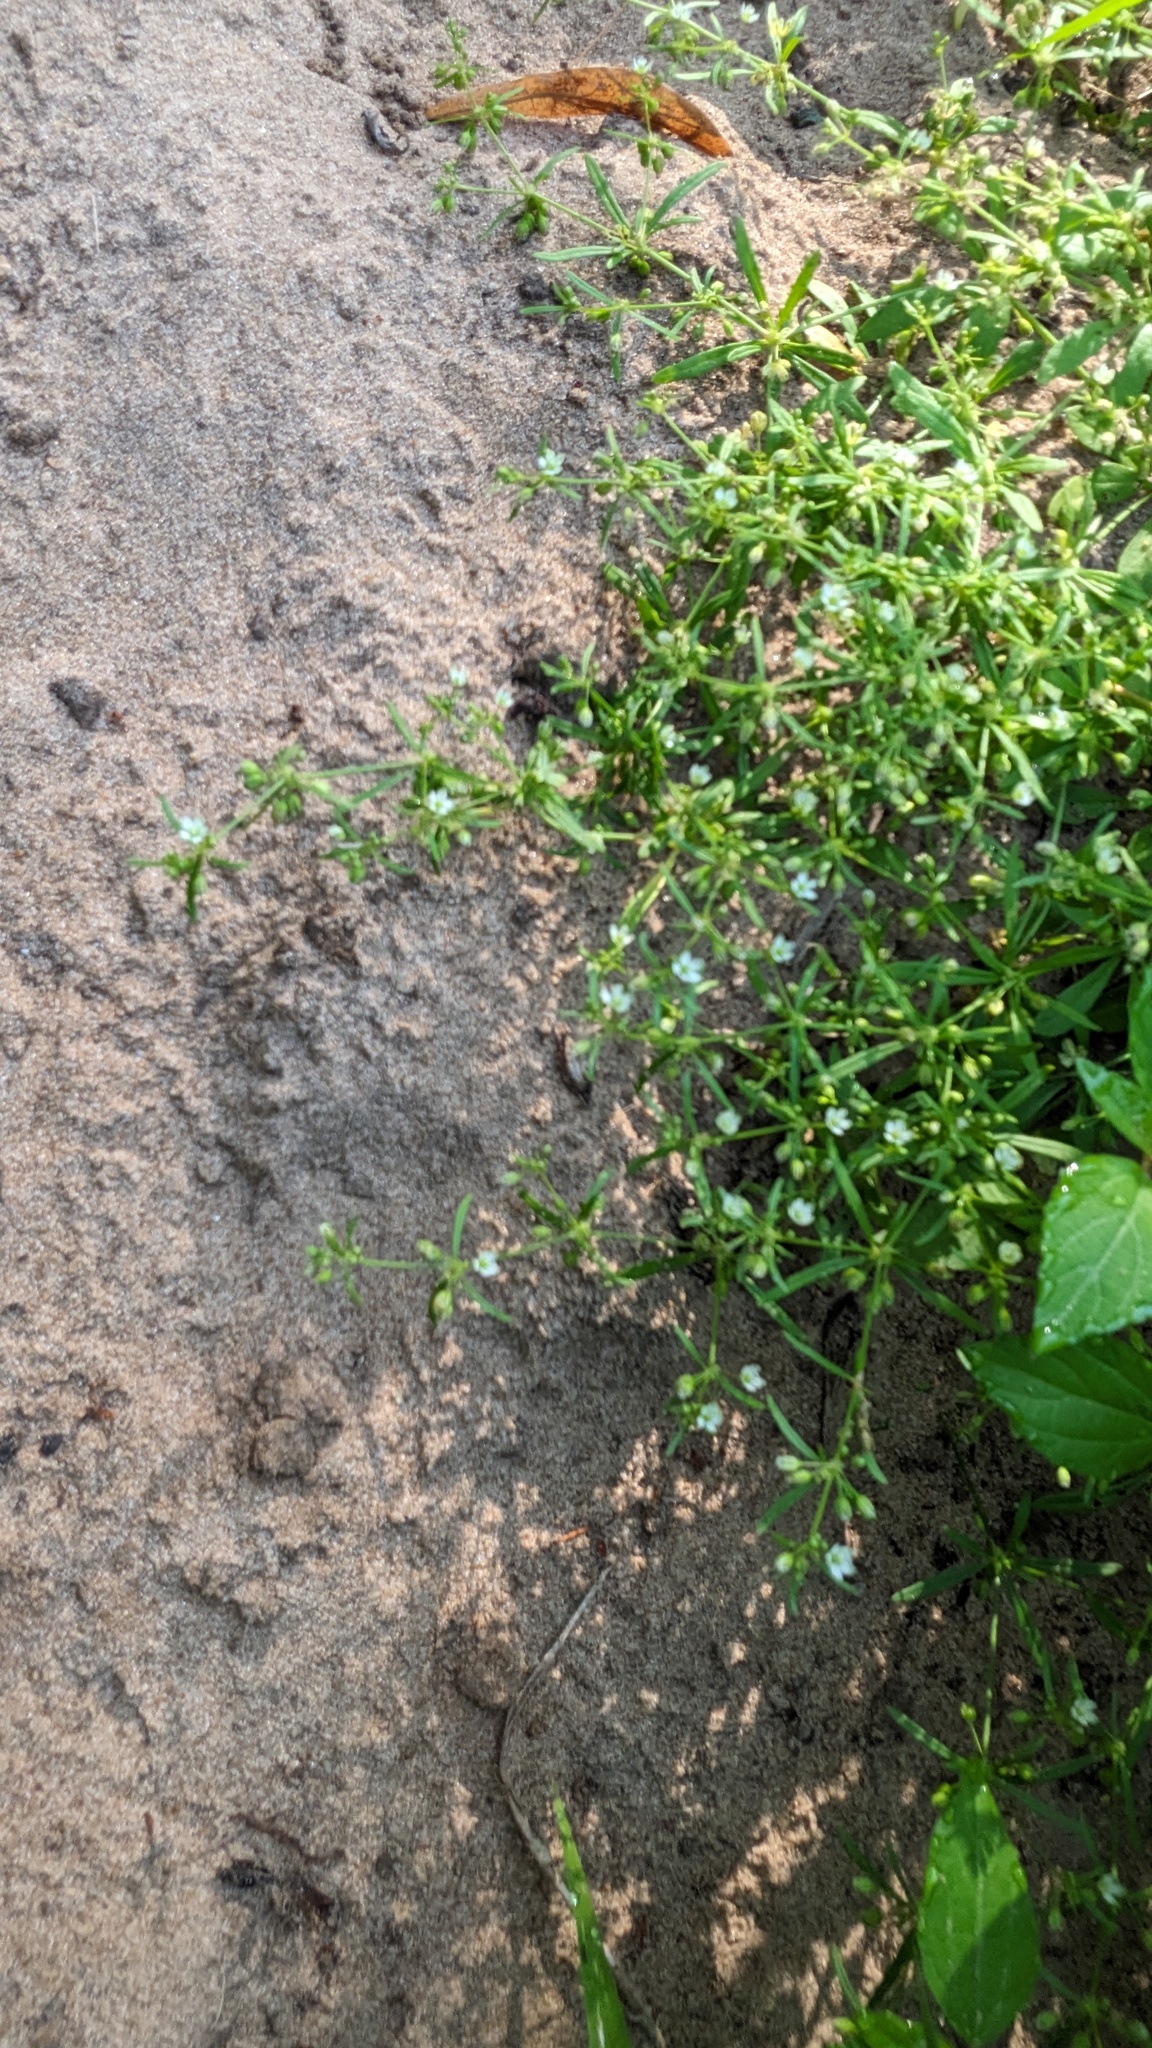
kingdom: Plantae
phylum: Tracheophyta
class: Magnoliopsida
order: Caryophyllales
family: Molluginaceae
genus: Mollugo
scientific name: Mollugo verticillata
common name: Green carpetweed
